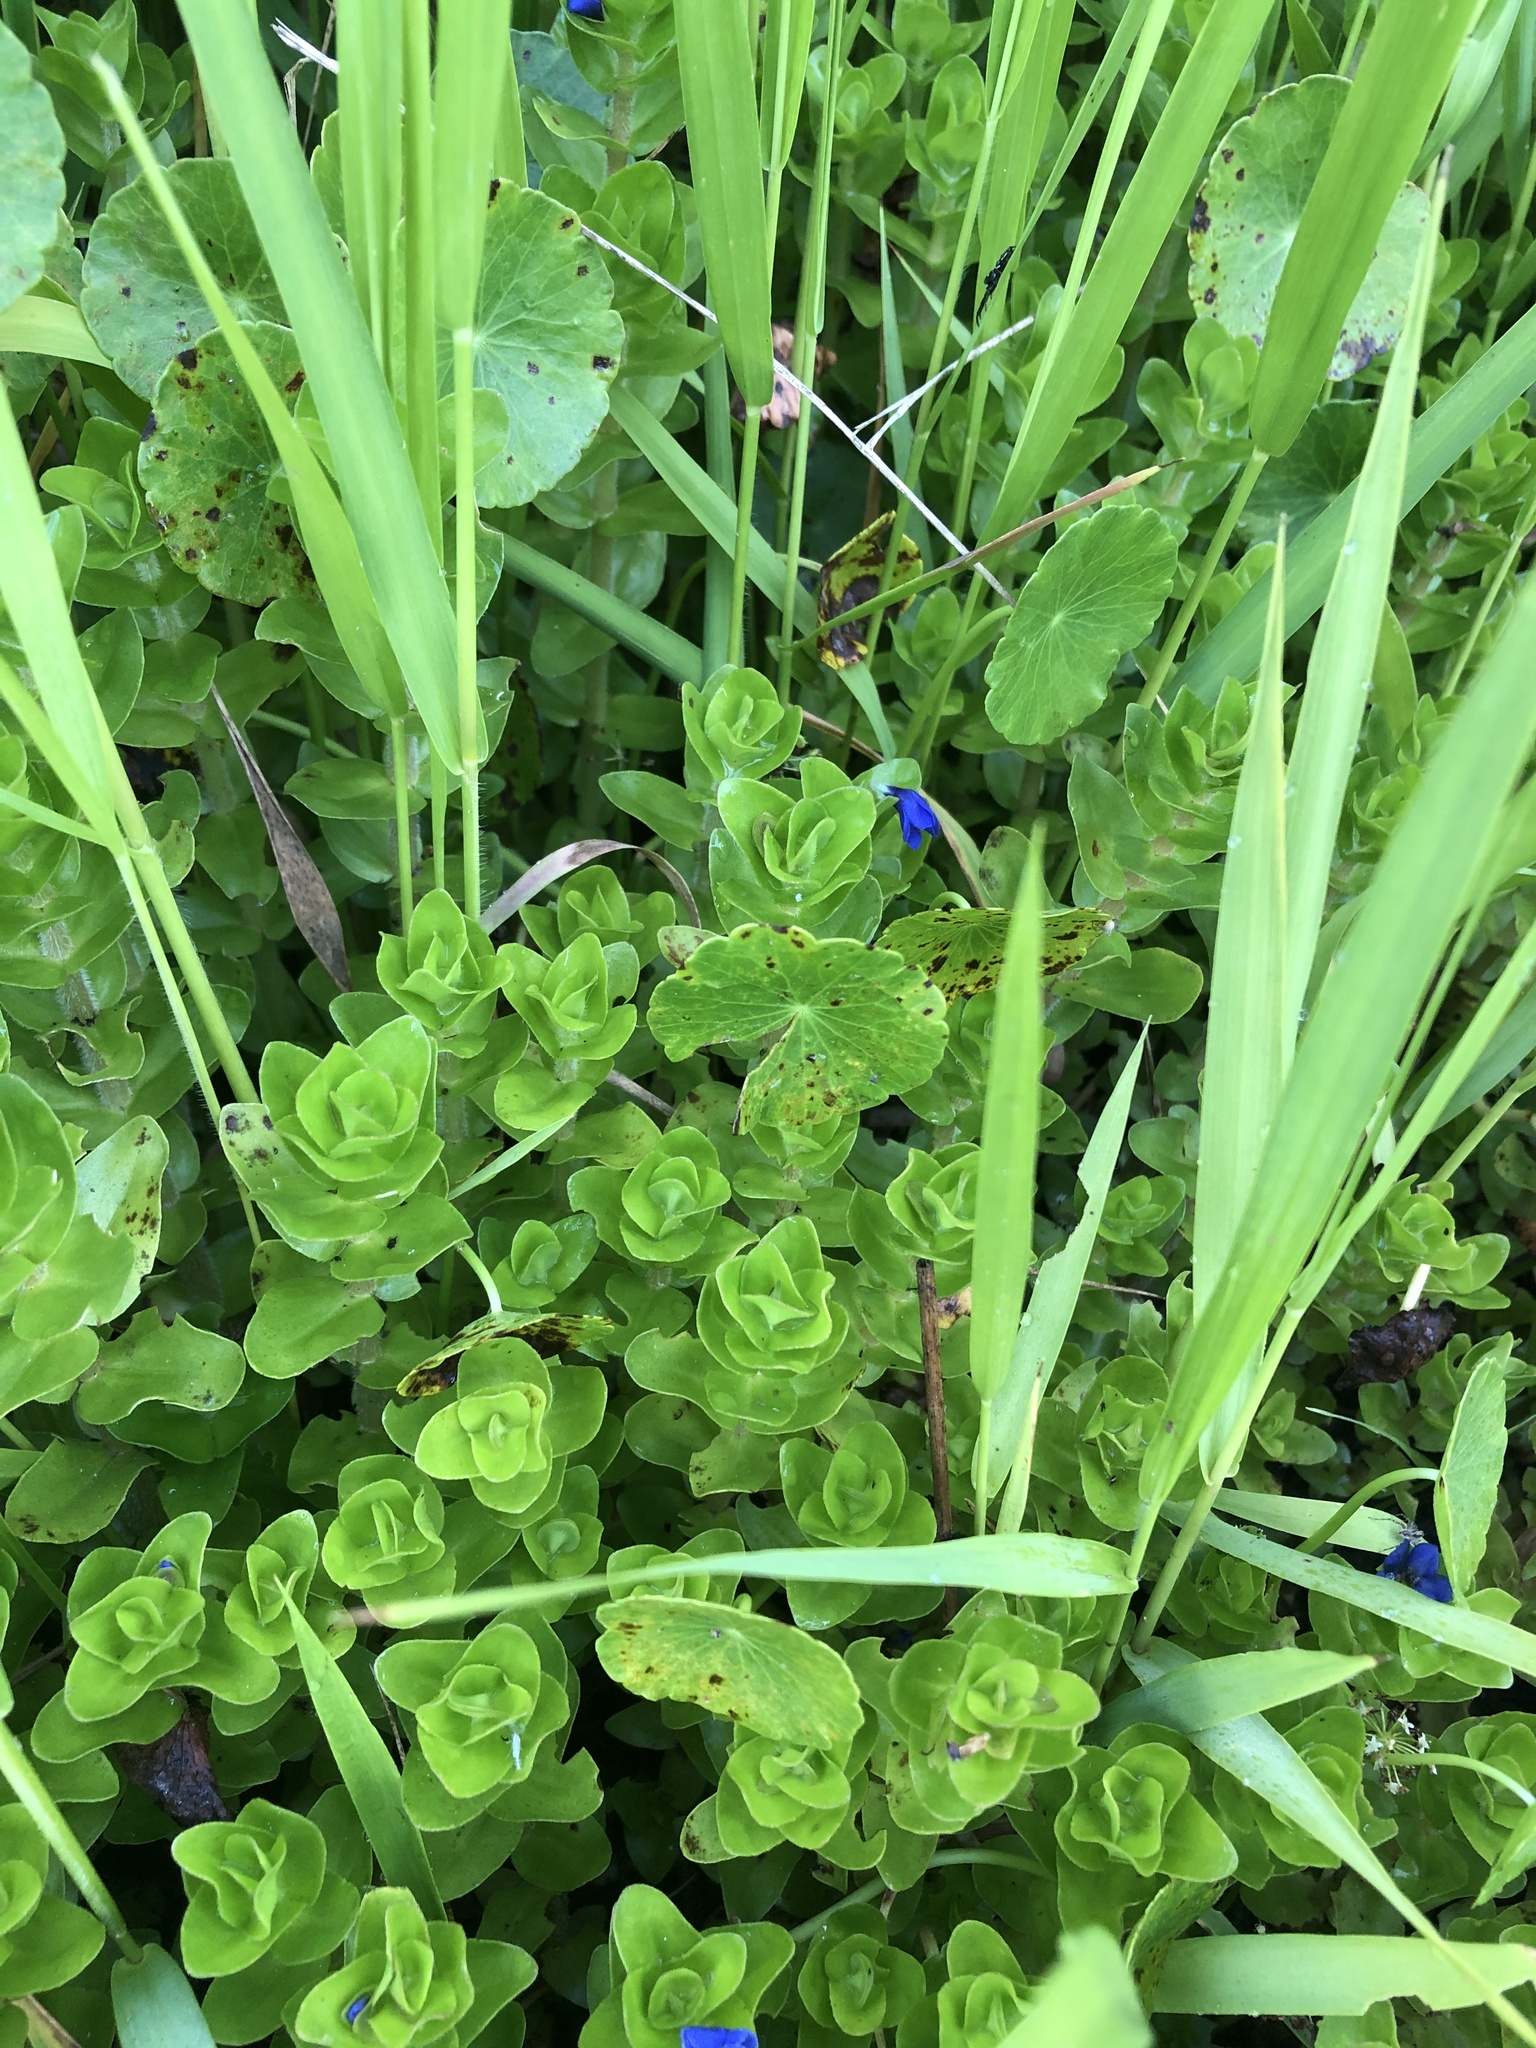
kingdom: Plantae
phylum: Tracheophyta
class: Magnoliopsida
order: Lamiales
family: Plantaginaceae
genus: Bacopa
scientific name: Bacopa caroliniana
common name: Lemon bacopa
